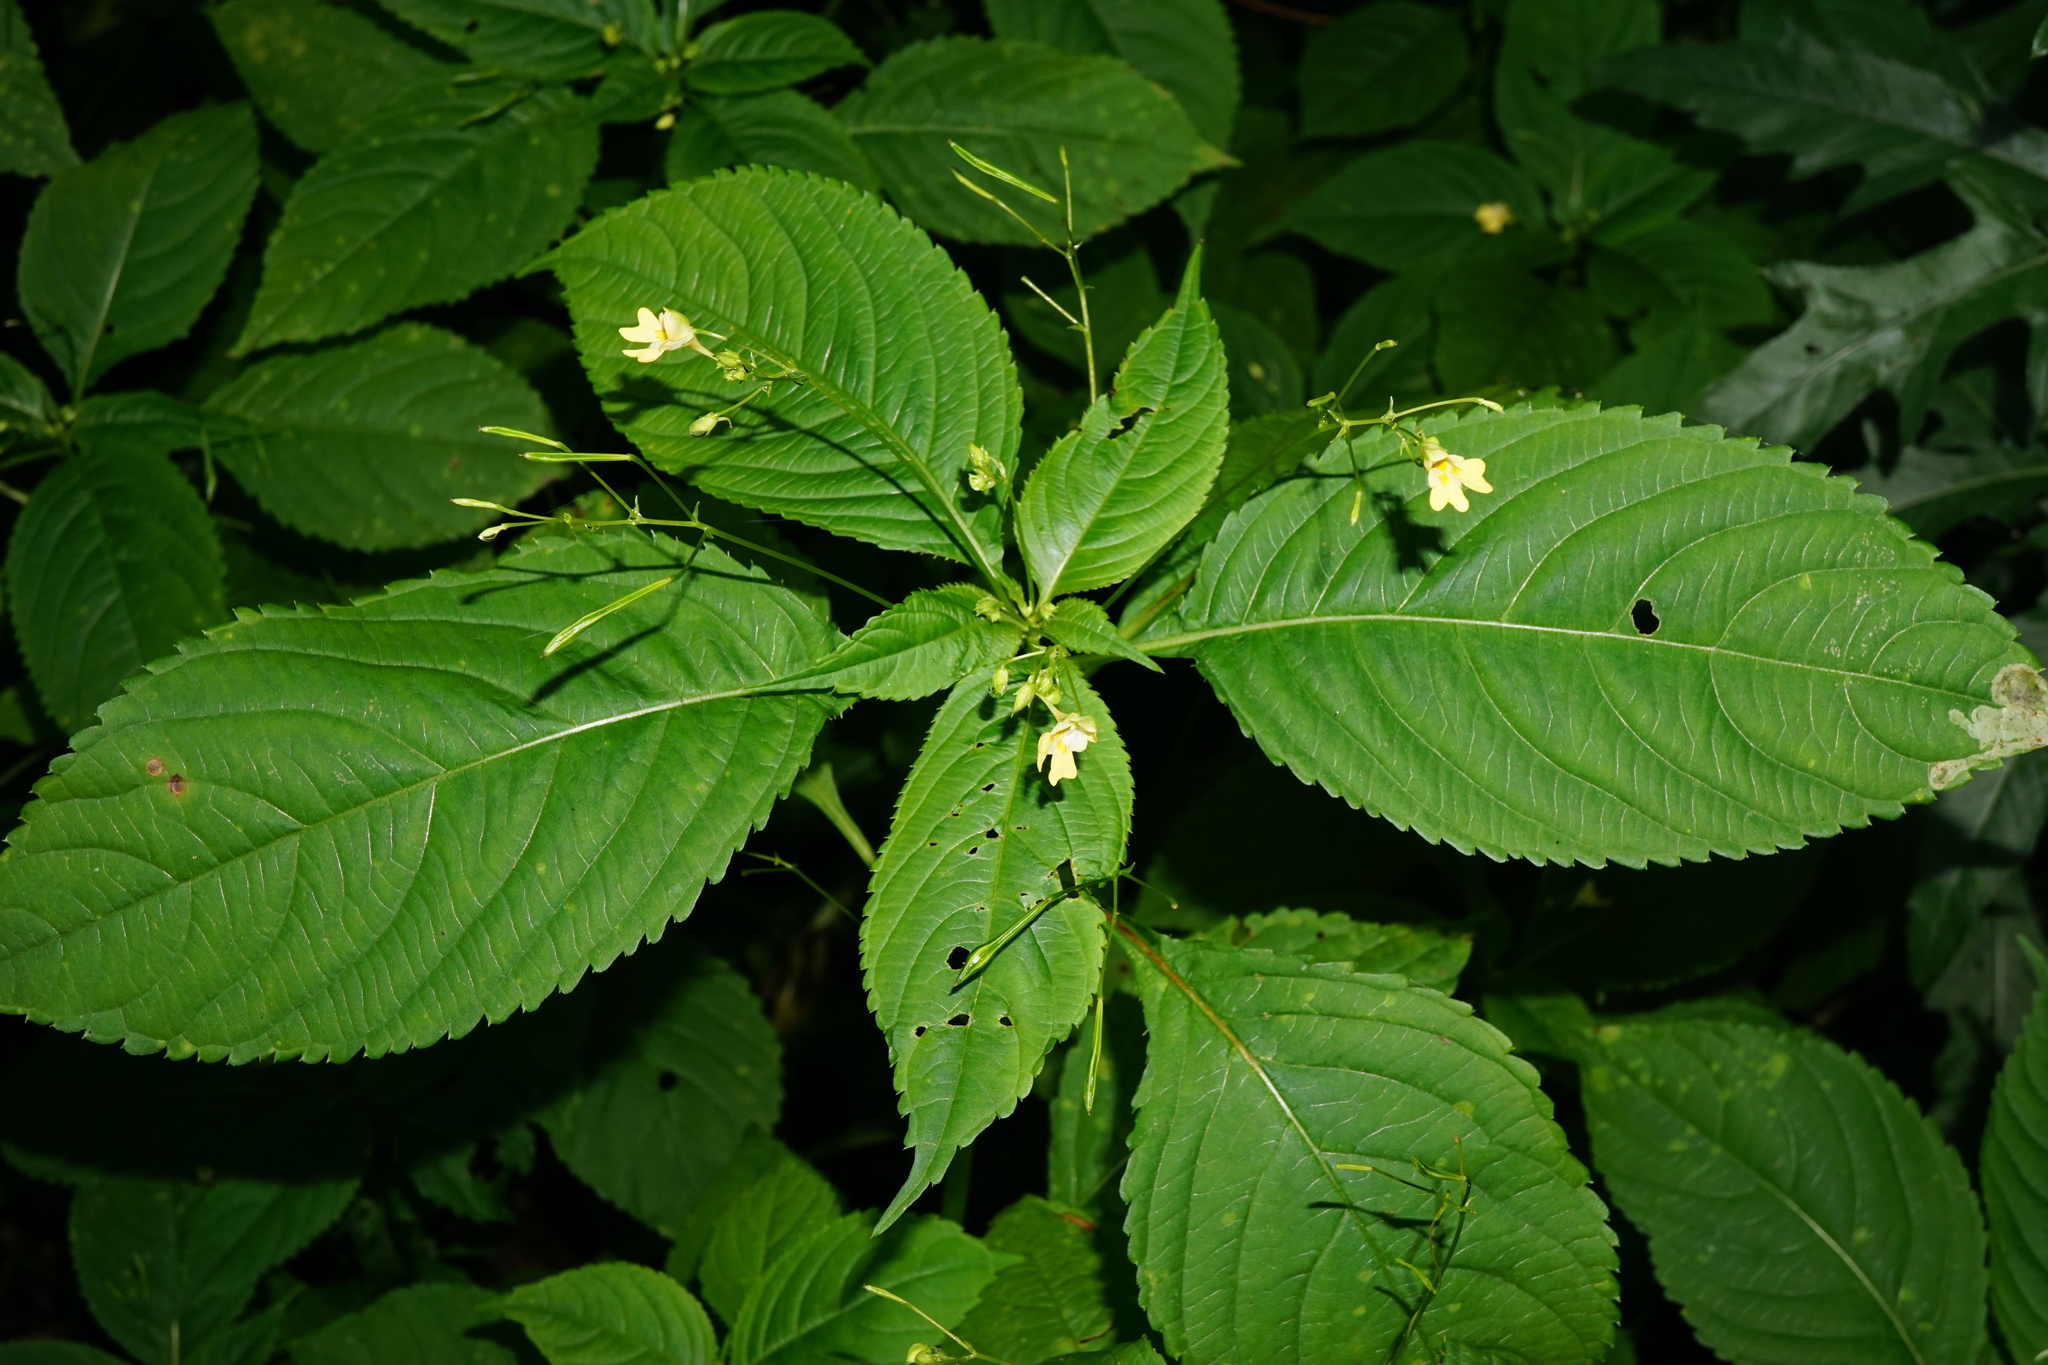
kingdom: Plantae
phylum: Tracheophyta
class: Magnoliopsida
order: Ericales
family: Balsaminaceae
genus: Impatiens
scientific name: Impatiens parviflora
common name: Small balsam
